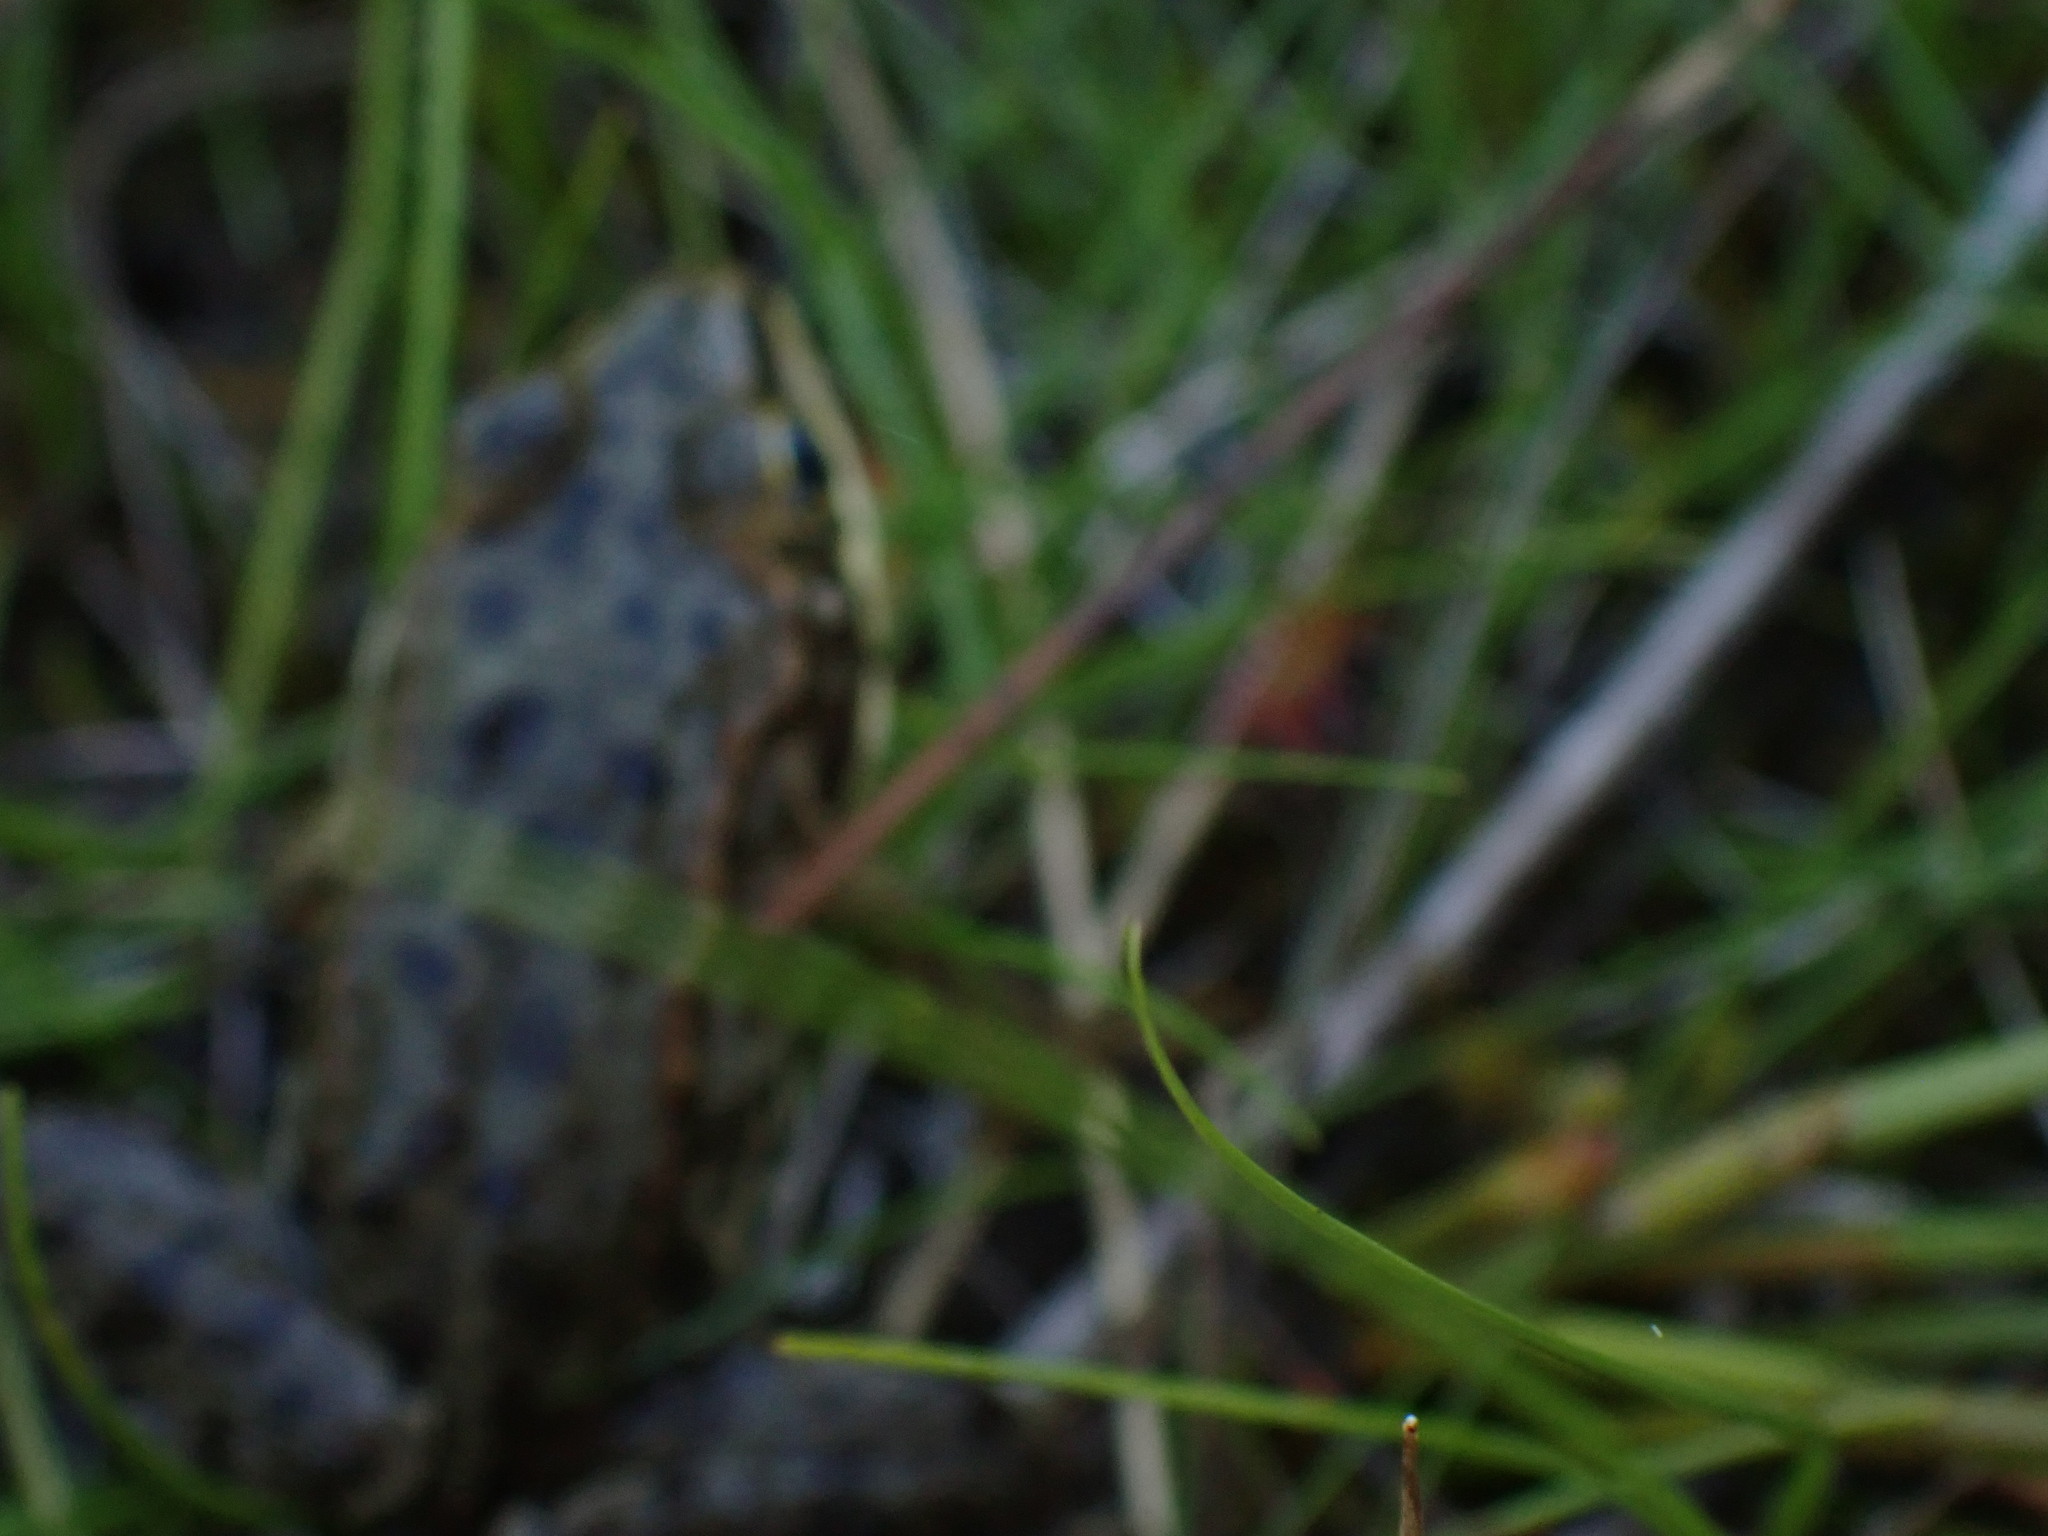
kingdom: Animalia
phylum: Chordata
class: Amphibia
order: Anura
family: Ranidae
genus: Rana
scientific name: Rana luteiventris
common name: Columbia spotted frog
